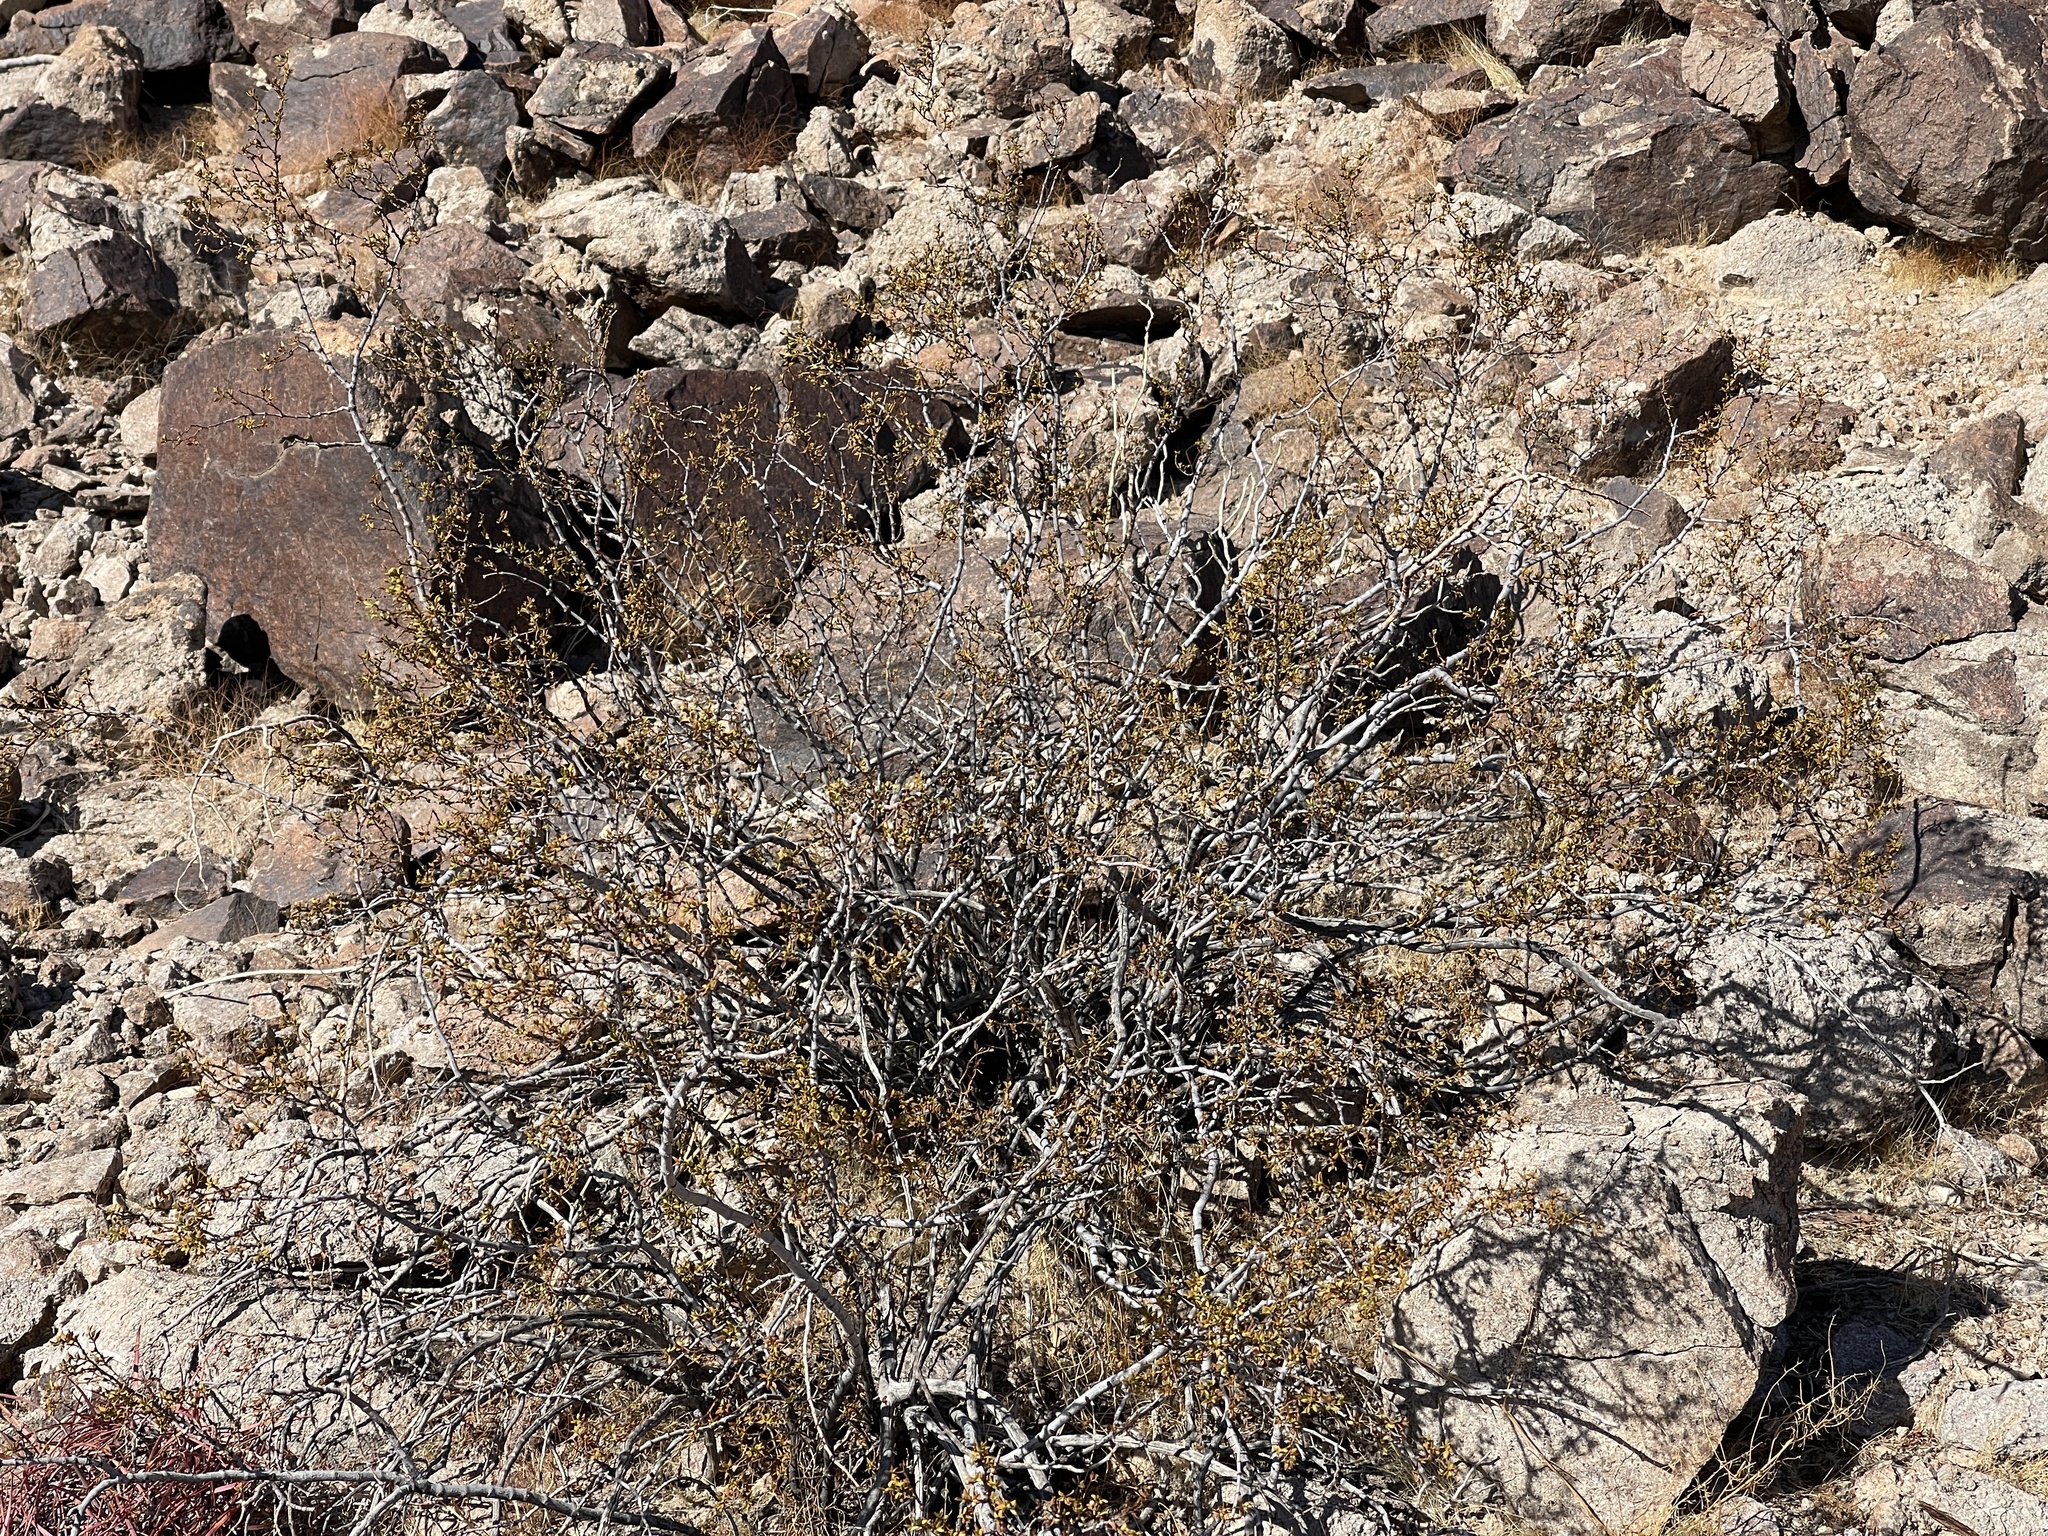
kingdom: Plantae
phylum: Tracheophyta
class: Magnoliopsida
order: Zygophyllales
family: Zygophyllaceae
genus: Larrea
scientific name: Larrea tridentata
